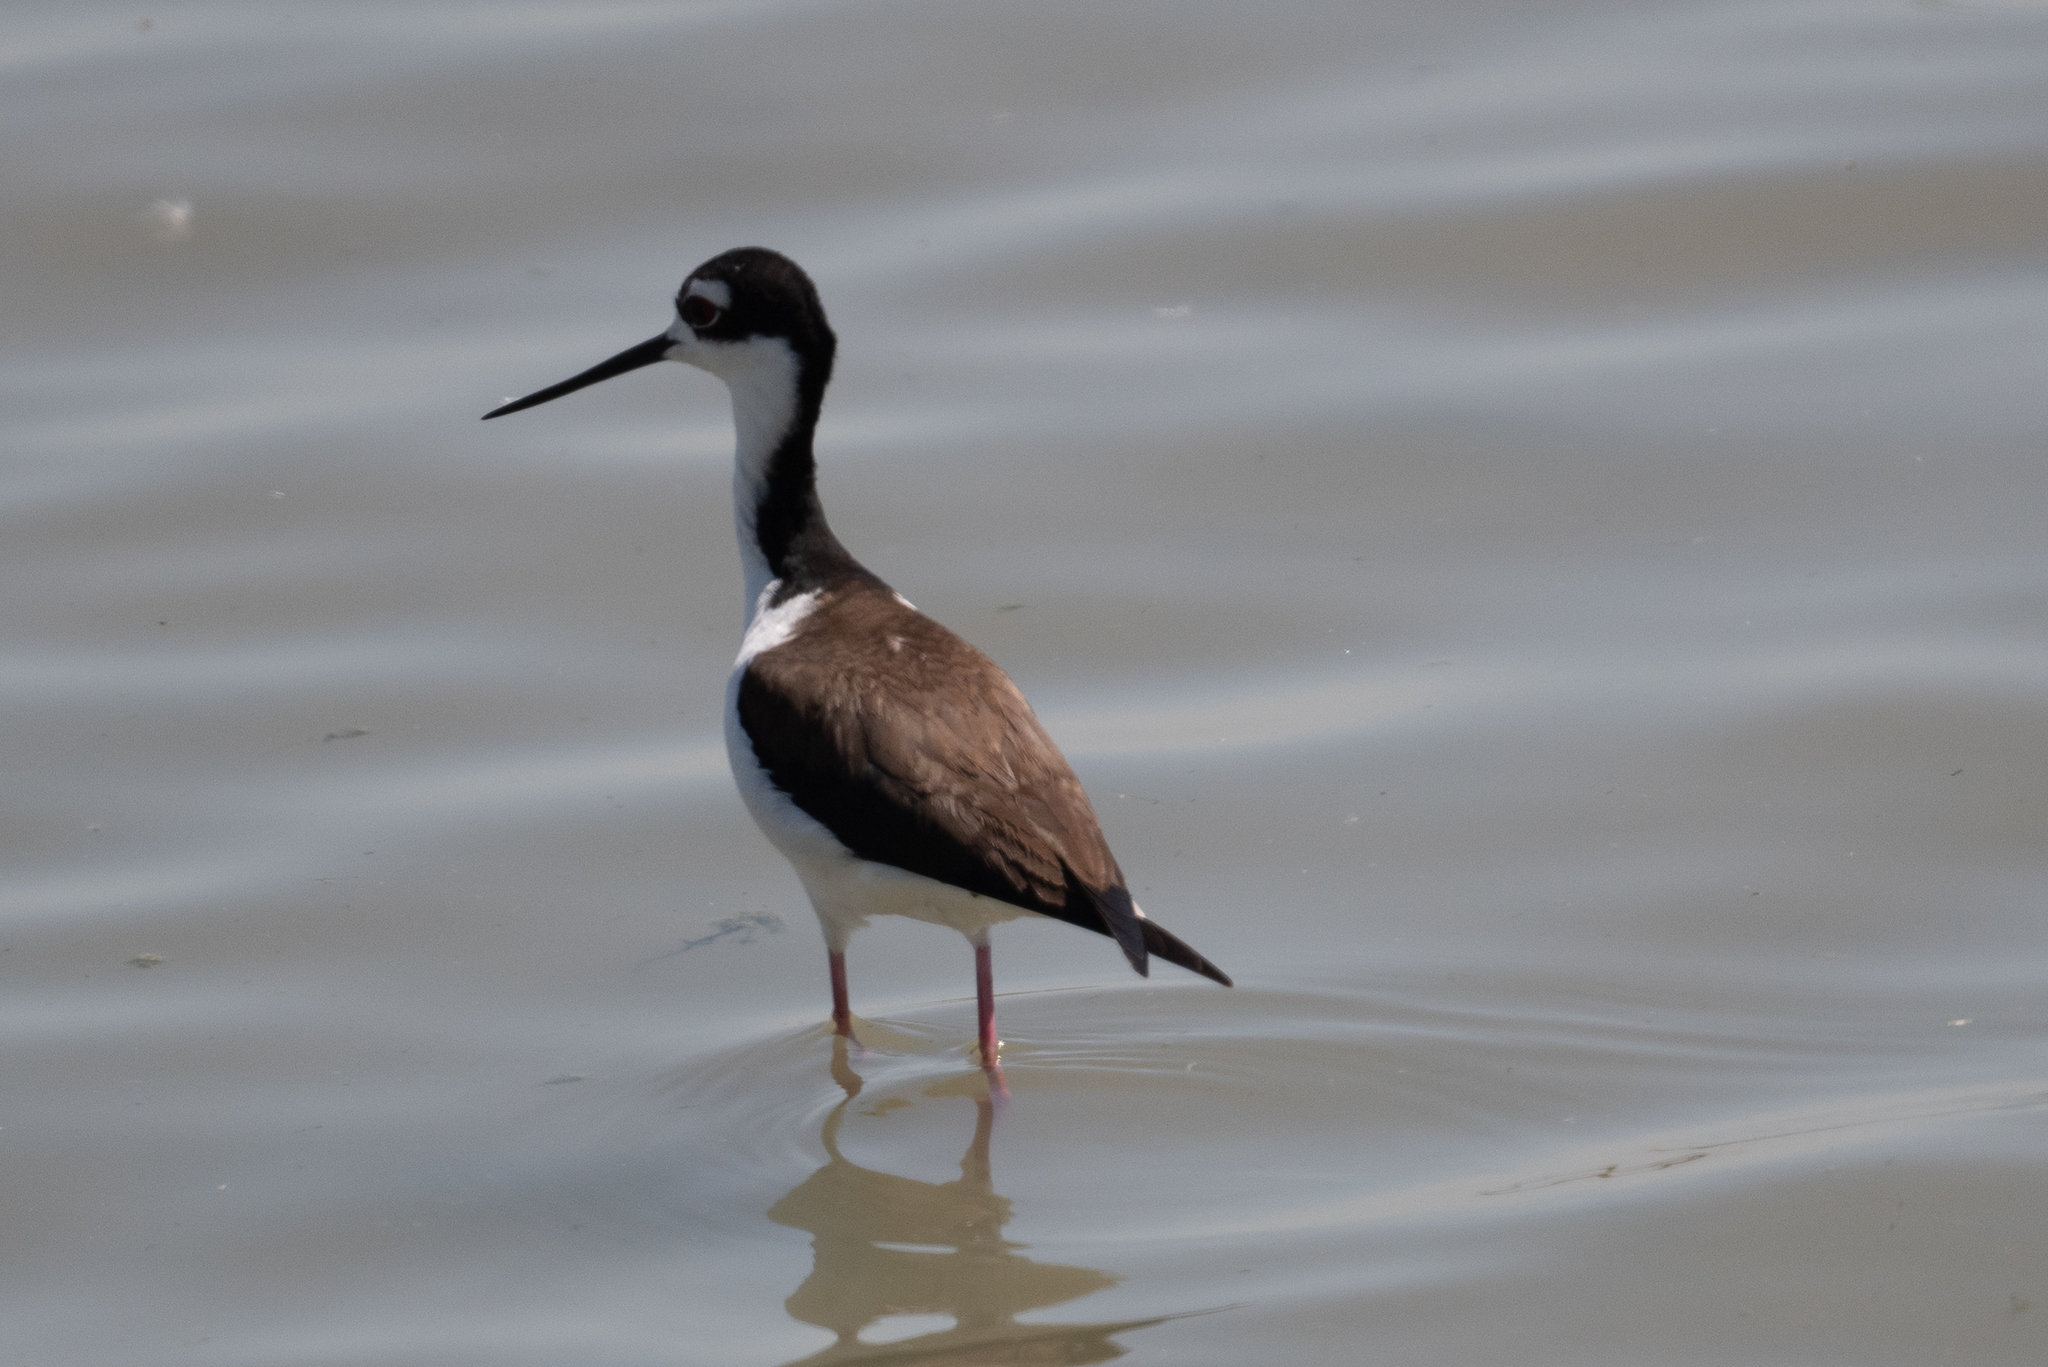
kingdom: Animalia
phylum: Chordata
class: Aves
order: Charadriiformes
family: Recurvirostridae
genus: Himantopus
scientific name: Himantopus mexicanus
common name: Black-necked stilt
